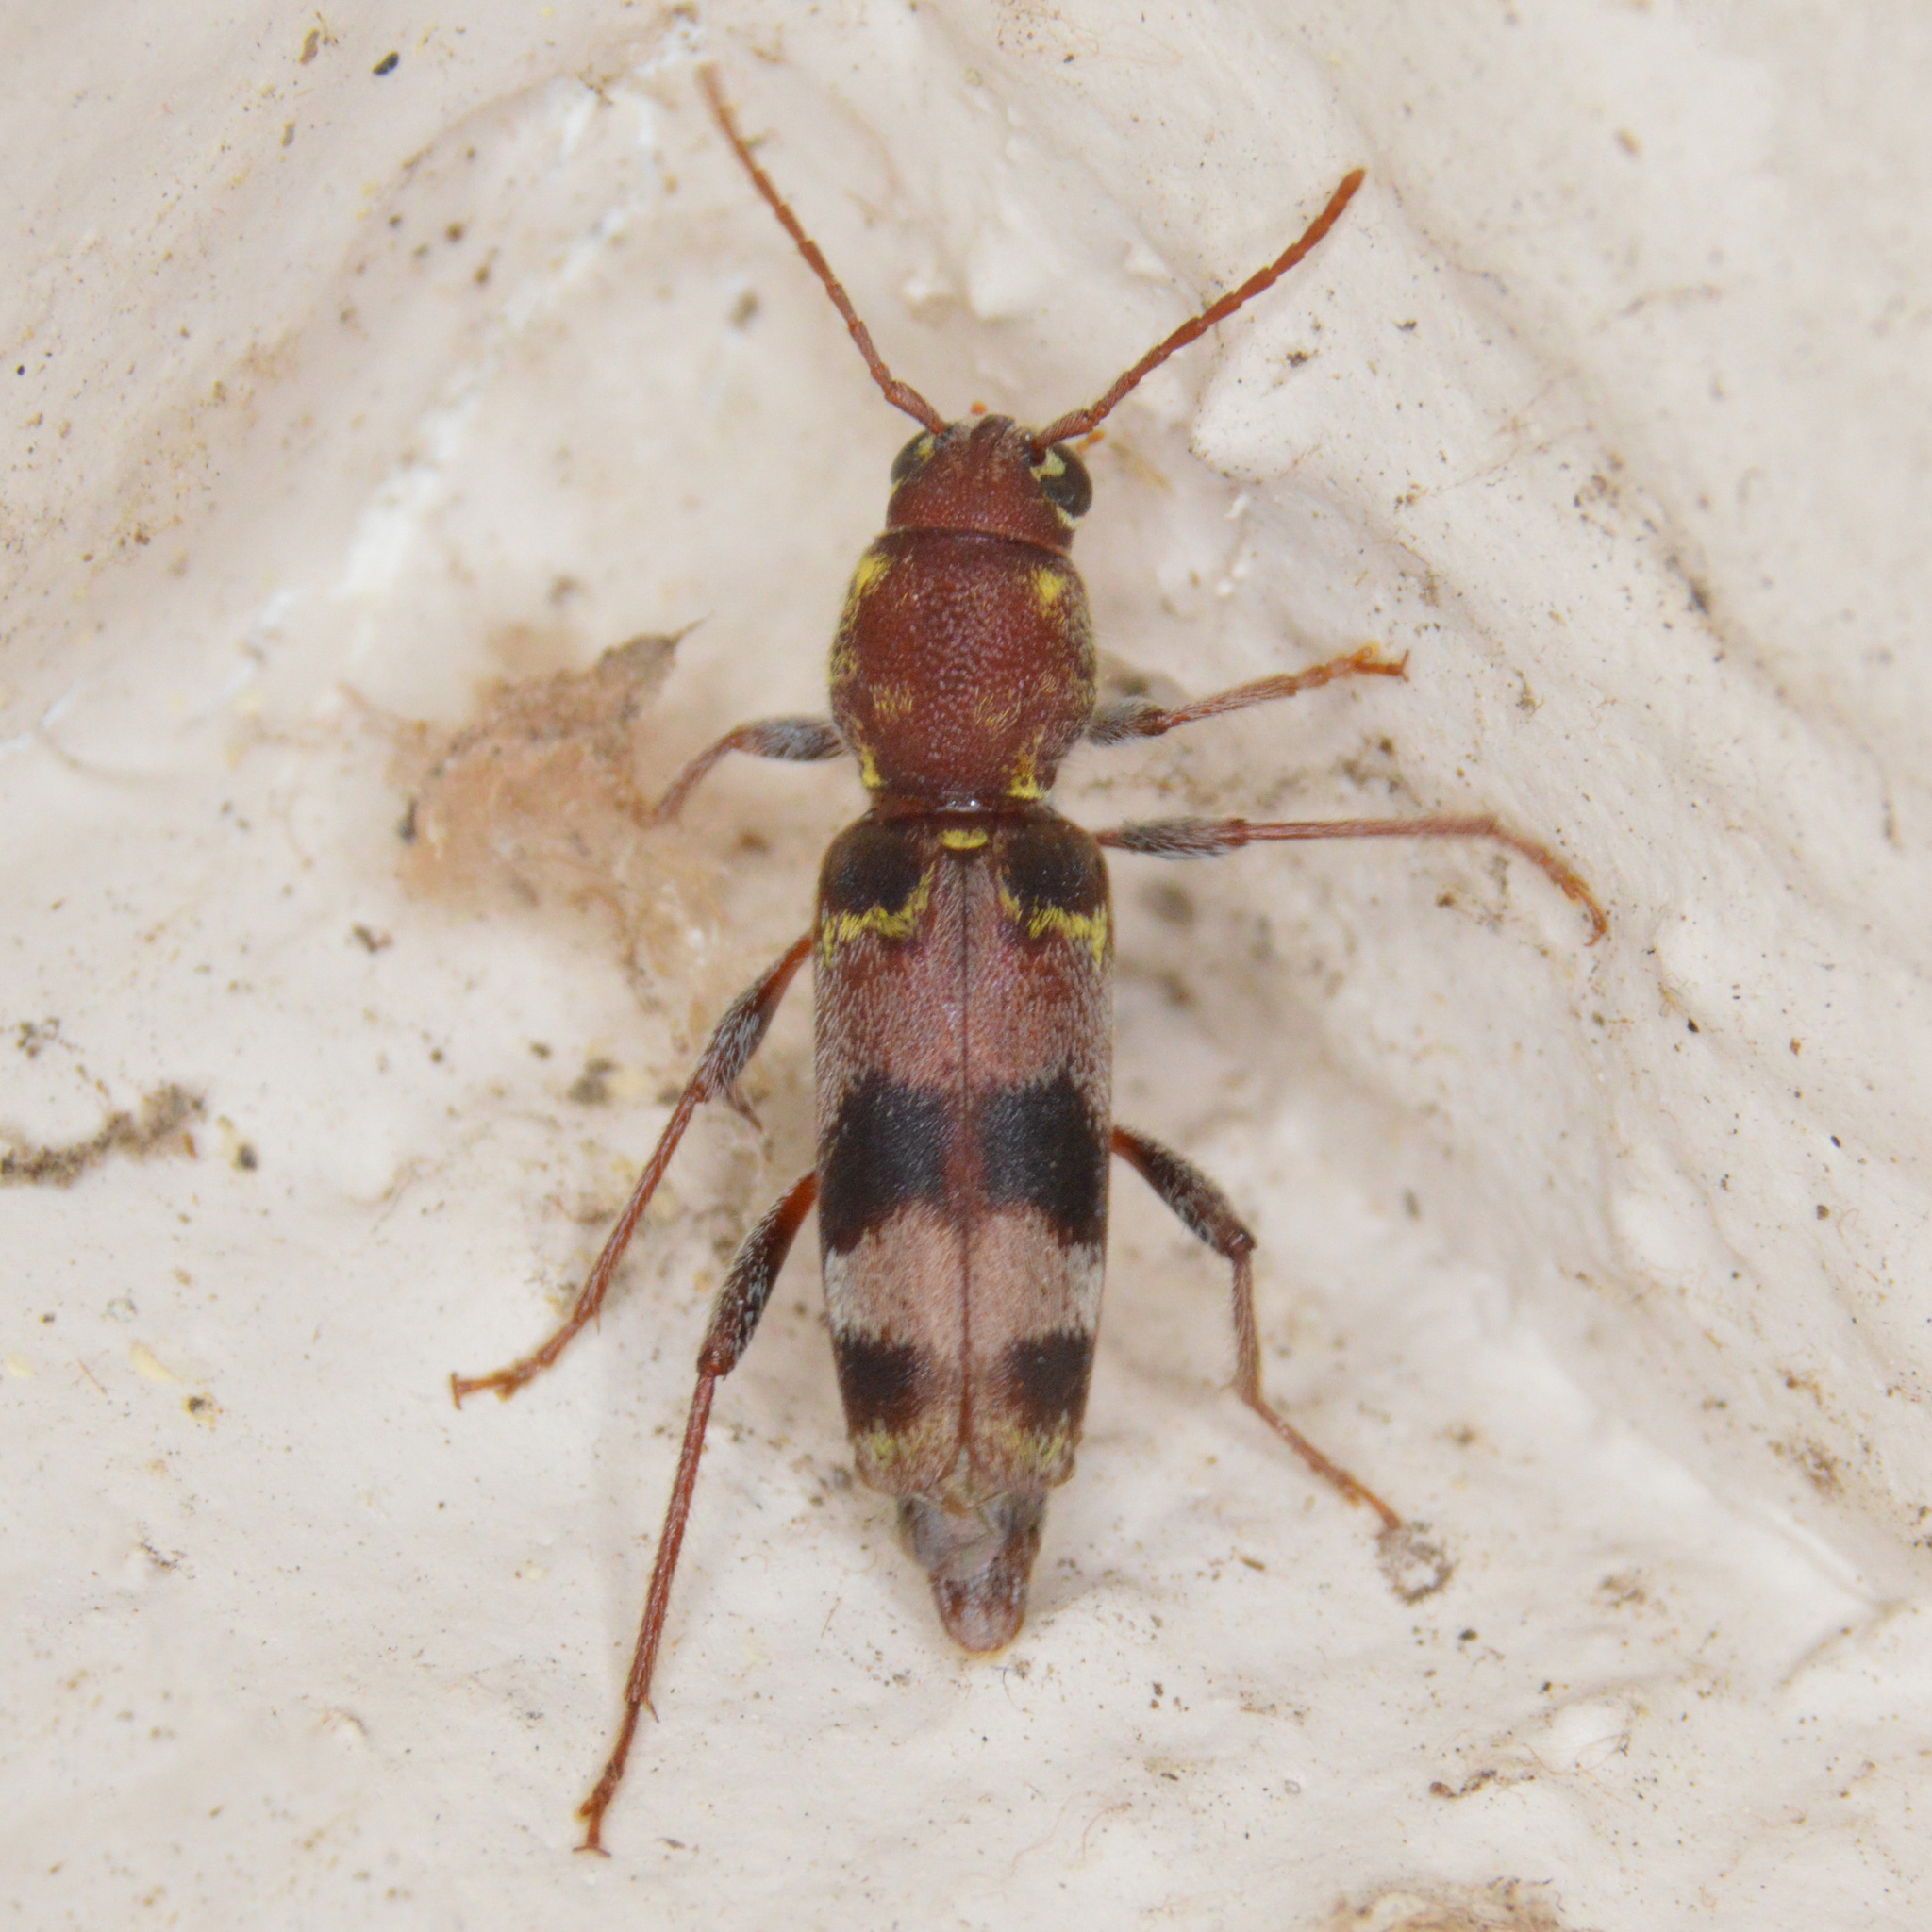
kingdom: Animalia
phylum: Arthropoda
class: Insecta
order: Coleoptera
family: Cerambycidae
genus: Xylotrechus
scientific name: Xylotrechus colonus
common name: Long-horned beetle
